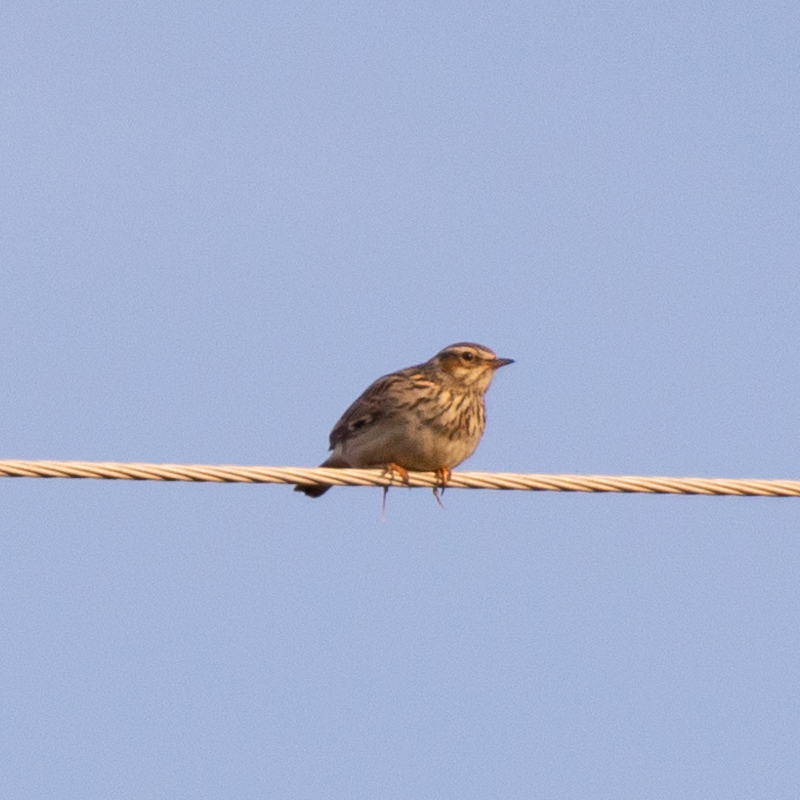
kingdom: Animalia
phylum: Chordata
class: Aves
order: Passeriformes
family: Alaudidae
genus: Lullula
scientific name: Lullula arborea
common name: Woodlark
